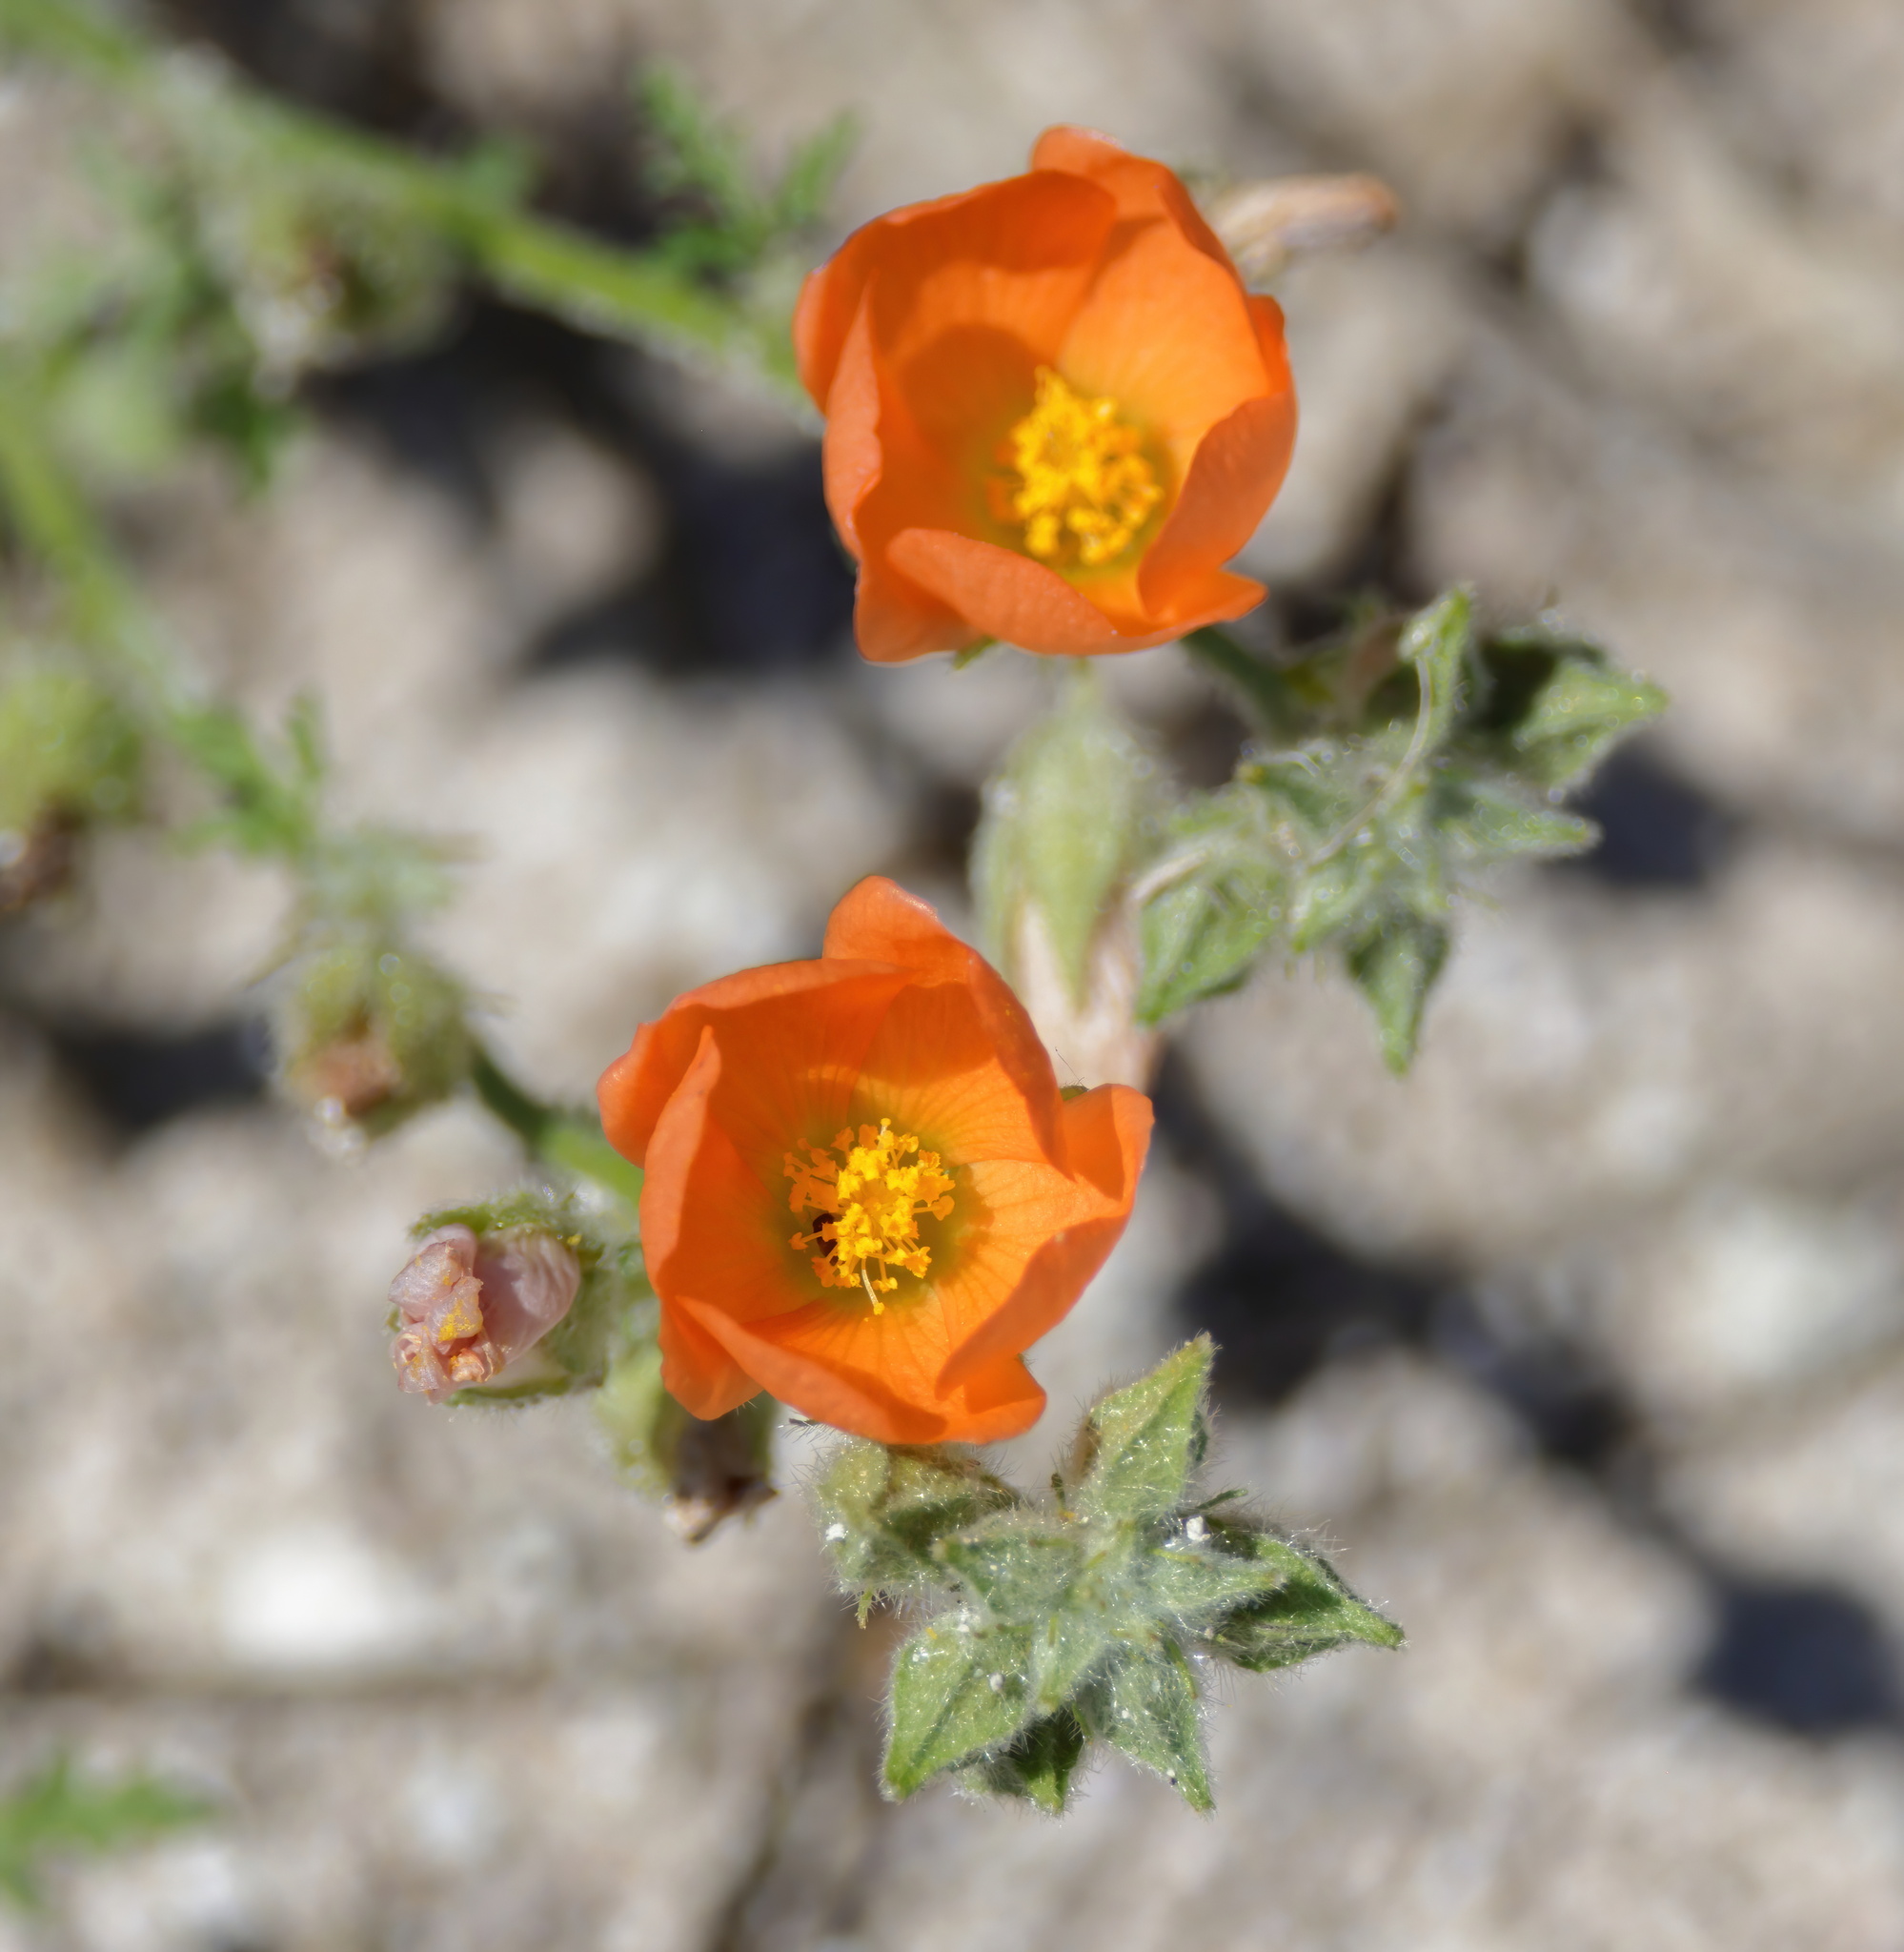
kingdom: Plantae
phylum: Tracheophyta
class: Magnoliopsida
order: Malvales
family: Malvaceae
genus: Sphaeralcea
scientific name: Sphaeralcea pedatifida
